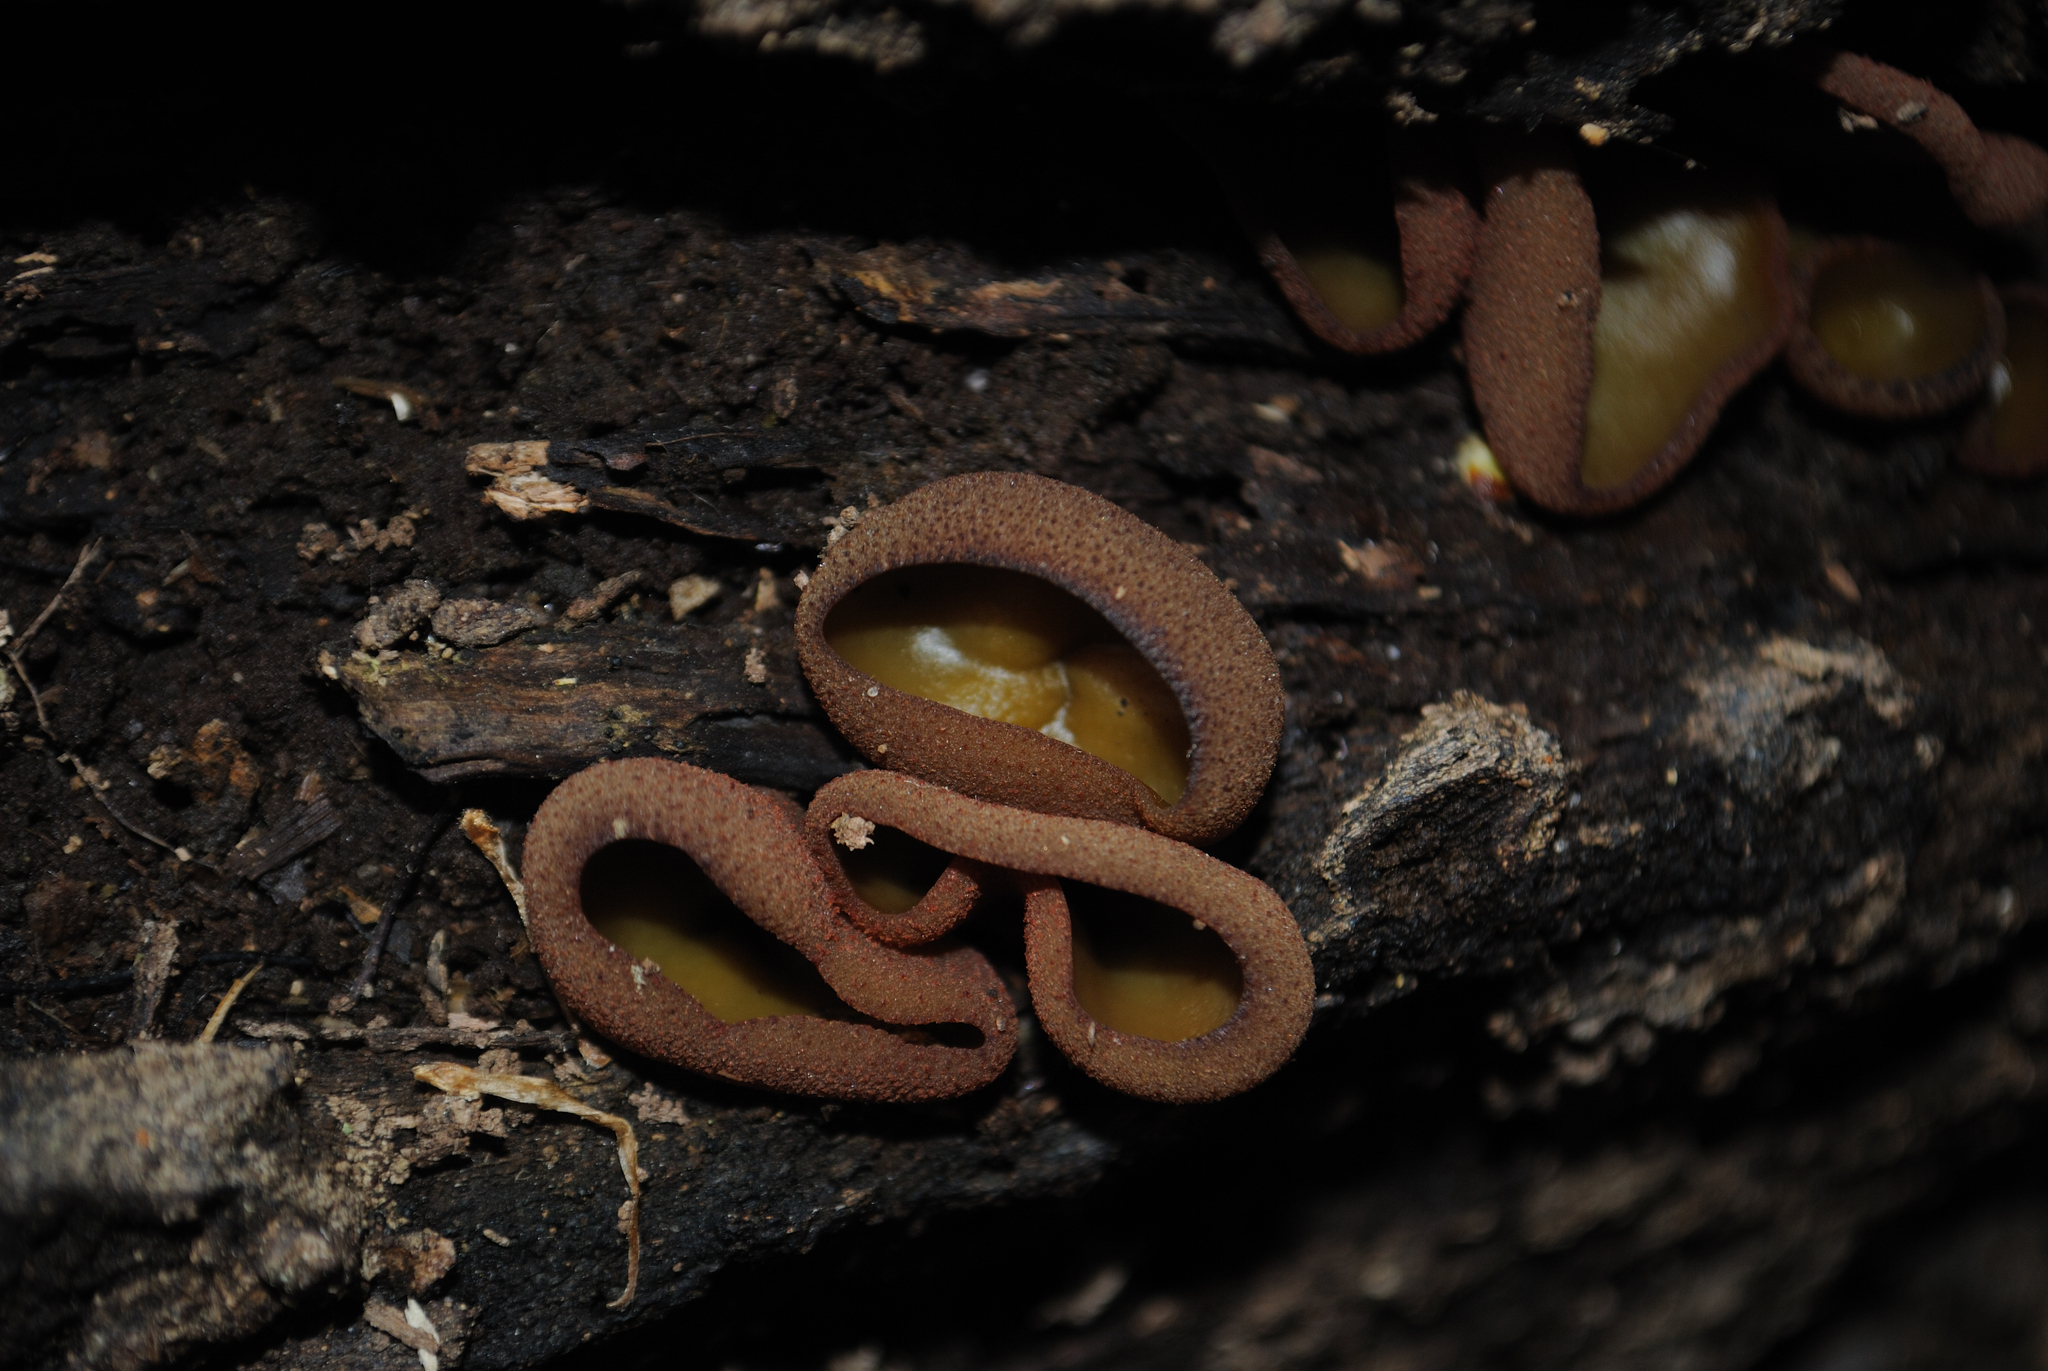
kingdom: Fungi
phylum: Ascomycota
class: Pezizomycetes
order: Pezizales
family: Pezizaceae
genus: Phylloscypha
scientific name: Phylloscypha phyllogena
